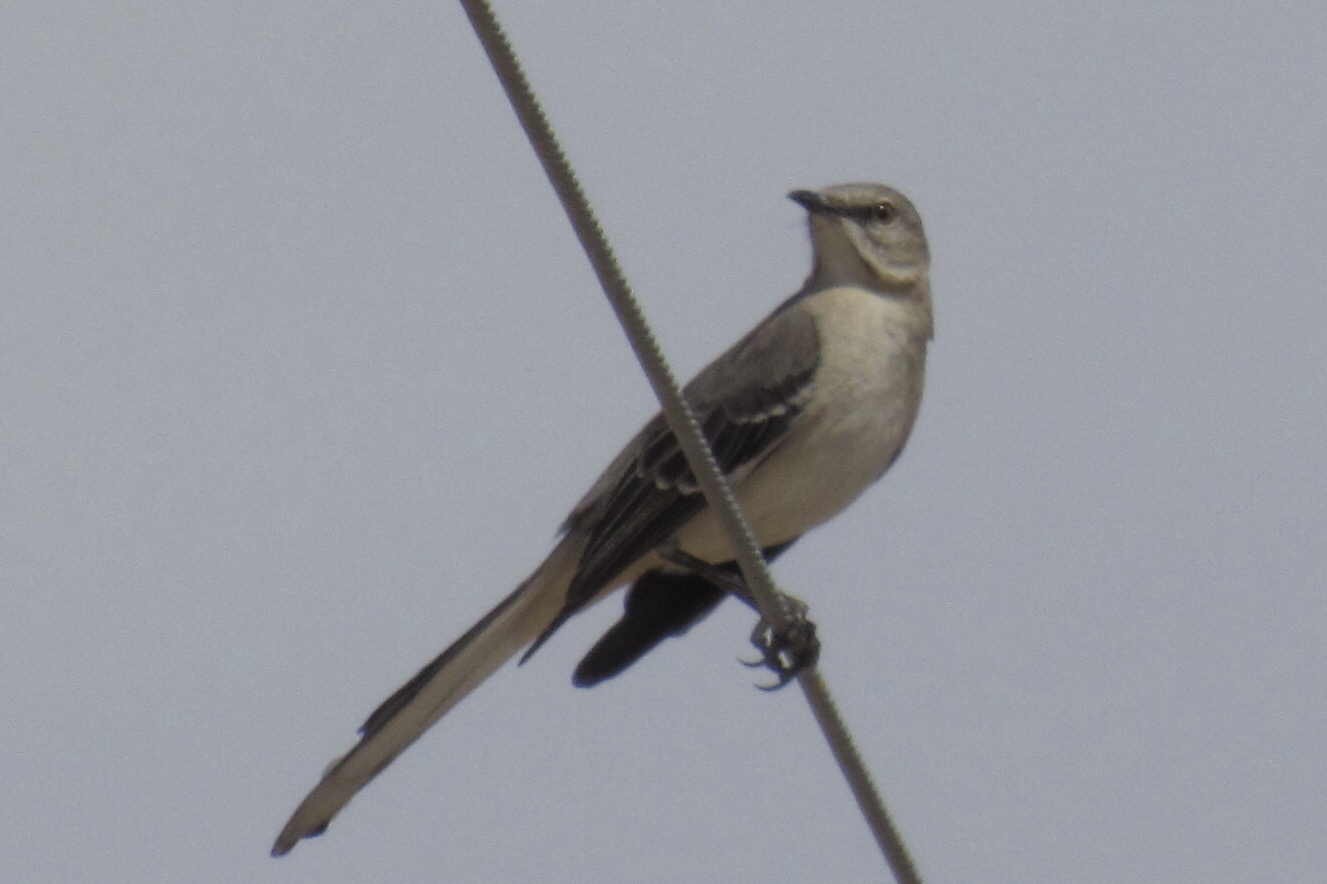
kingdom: Animalia
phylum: Chordata
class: Aves
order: Passeriformes
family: Mimidae
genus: Mimus
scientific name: Mimus polyglottos
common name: Northern mockingbird
